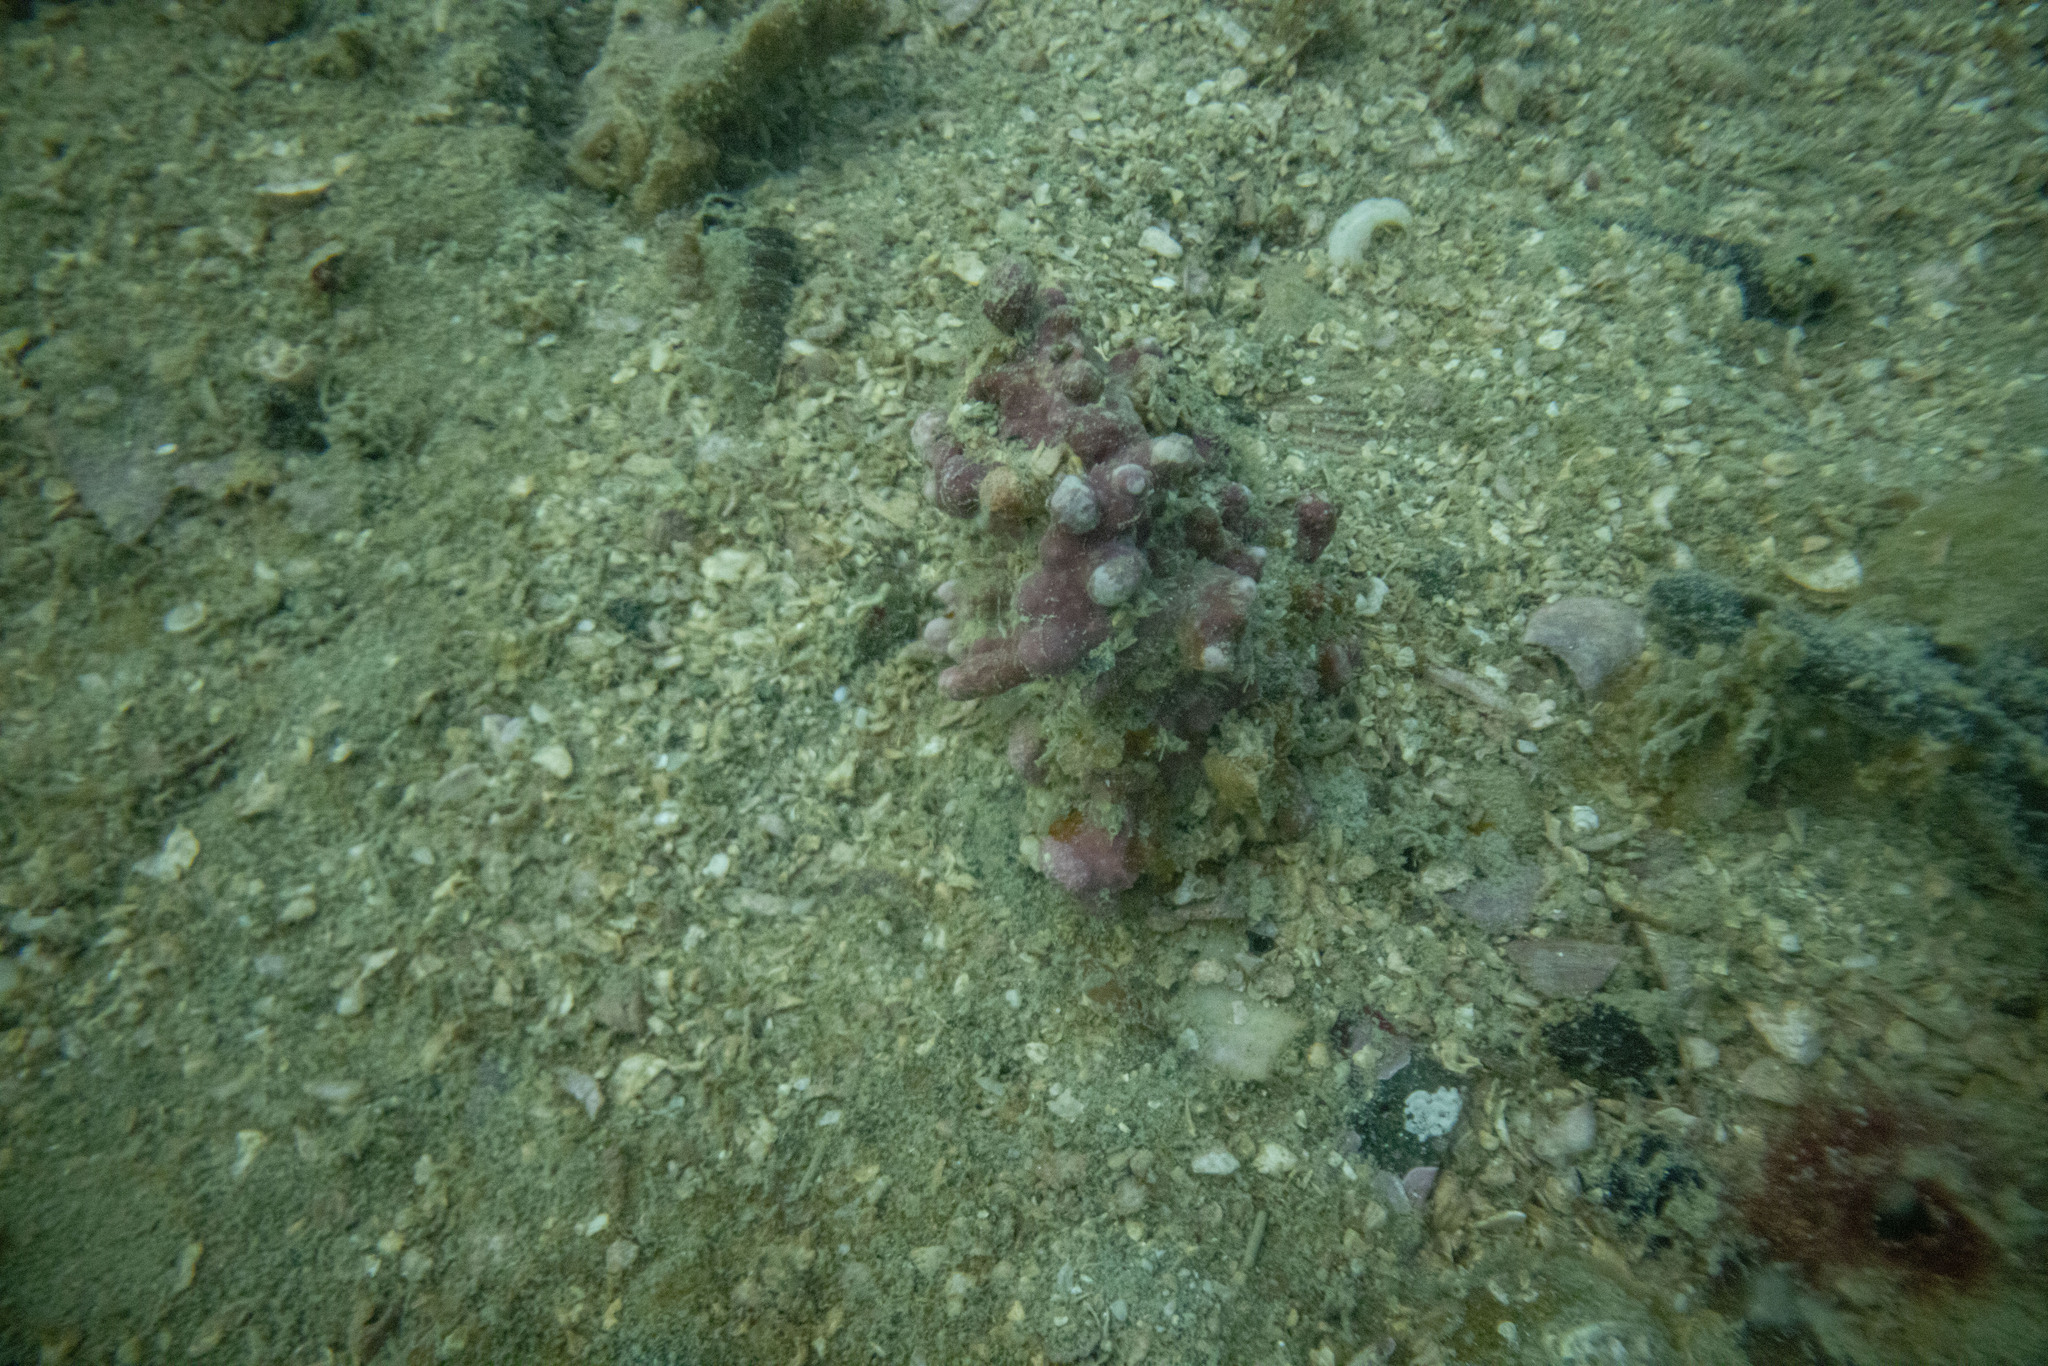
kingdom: Plantae
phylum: Rhodophyta
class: Florideophyceae
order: Corallinales
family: Sporolithaceae
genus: Sporolithon
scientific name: Sporolithon durum
